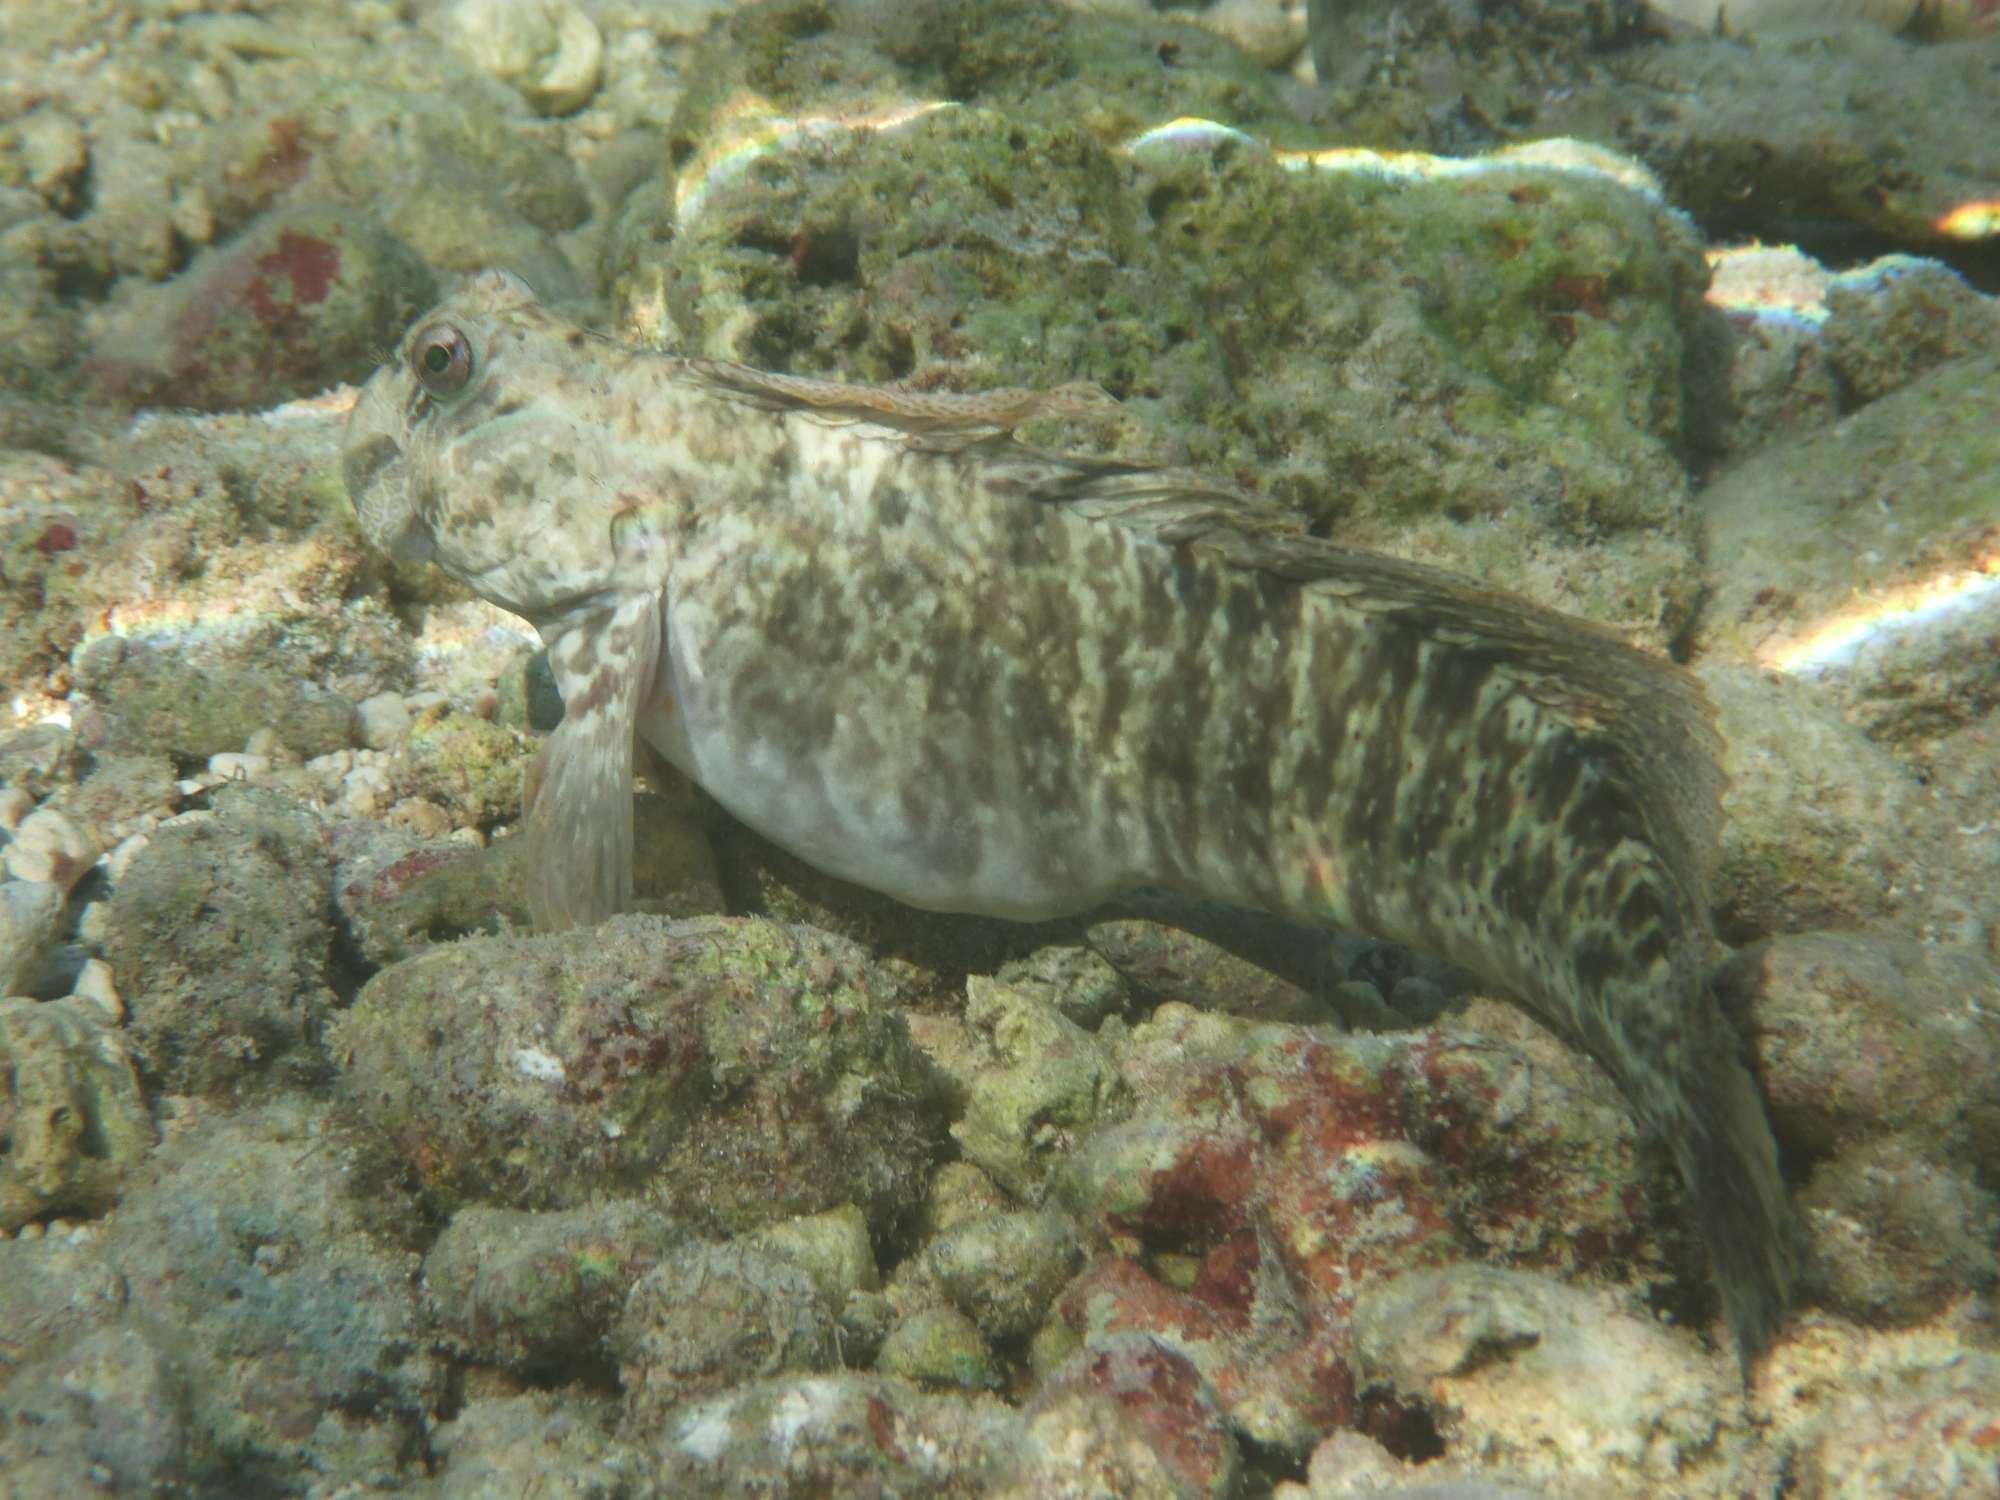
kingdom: Animalia
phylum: Chordata
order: Perciformes
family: Blenniidae
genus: Istiblennius
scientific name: Istiblennius edentulus
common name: Rippled rockskipper
